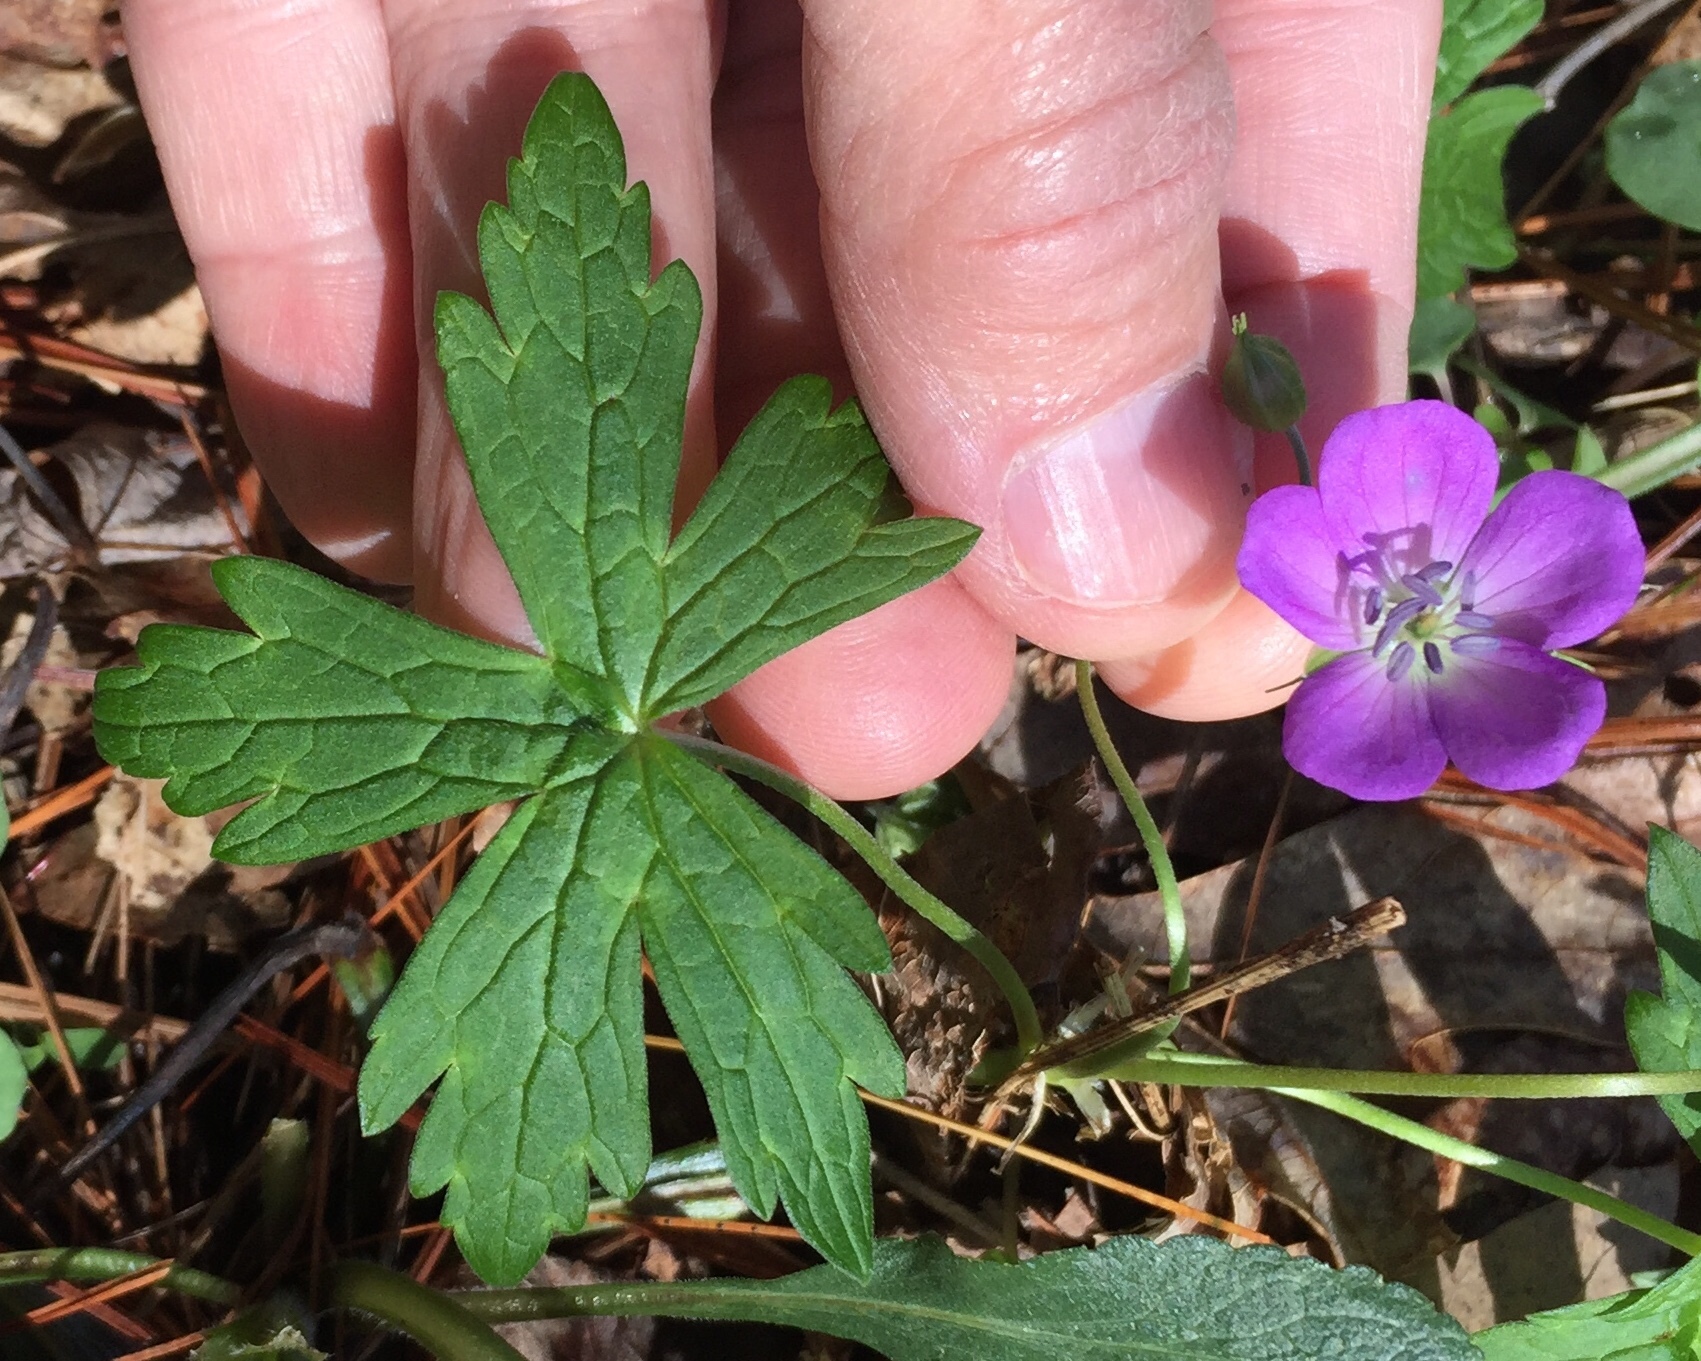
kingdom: Plantae
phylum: Tracheophyta
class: Magnoliopsida
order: Geraniales
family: Geraniaceae
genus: Geranium
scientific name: Geranium maculatum
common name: Spotted geranium
